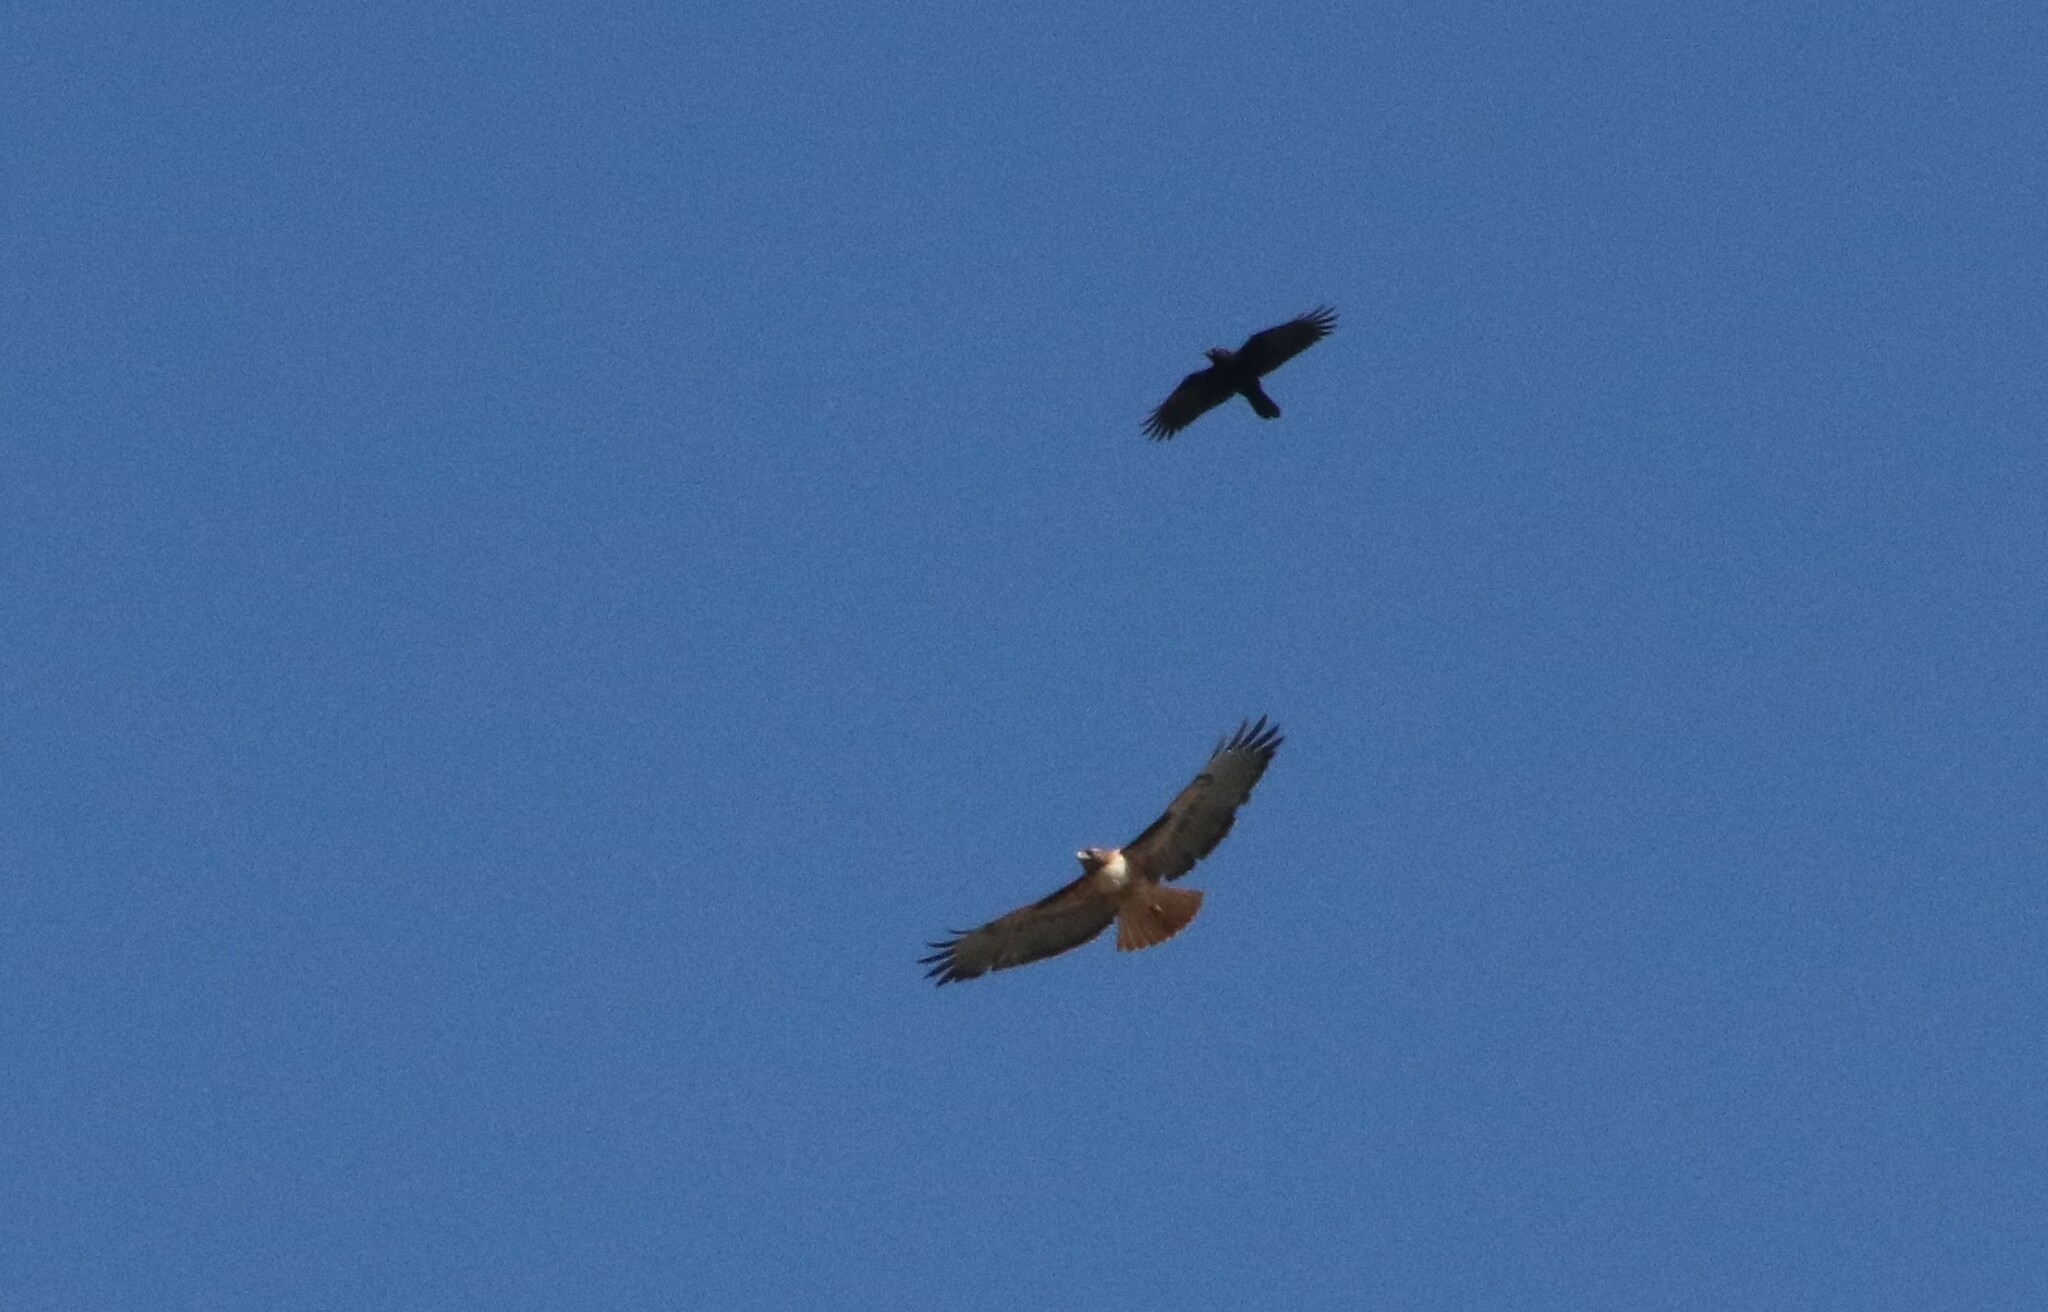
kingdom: Animalia
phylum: Chordata
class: Aves
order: Accipitriformes
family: Accipitridae
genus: Buteo
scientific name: Buteo jamaicensis
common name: Red-tailed hawk
